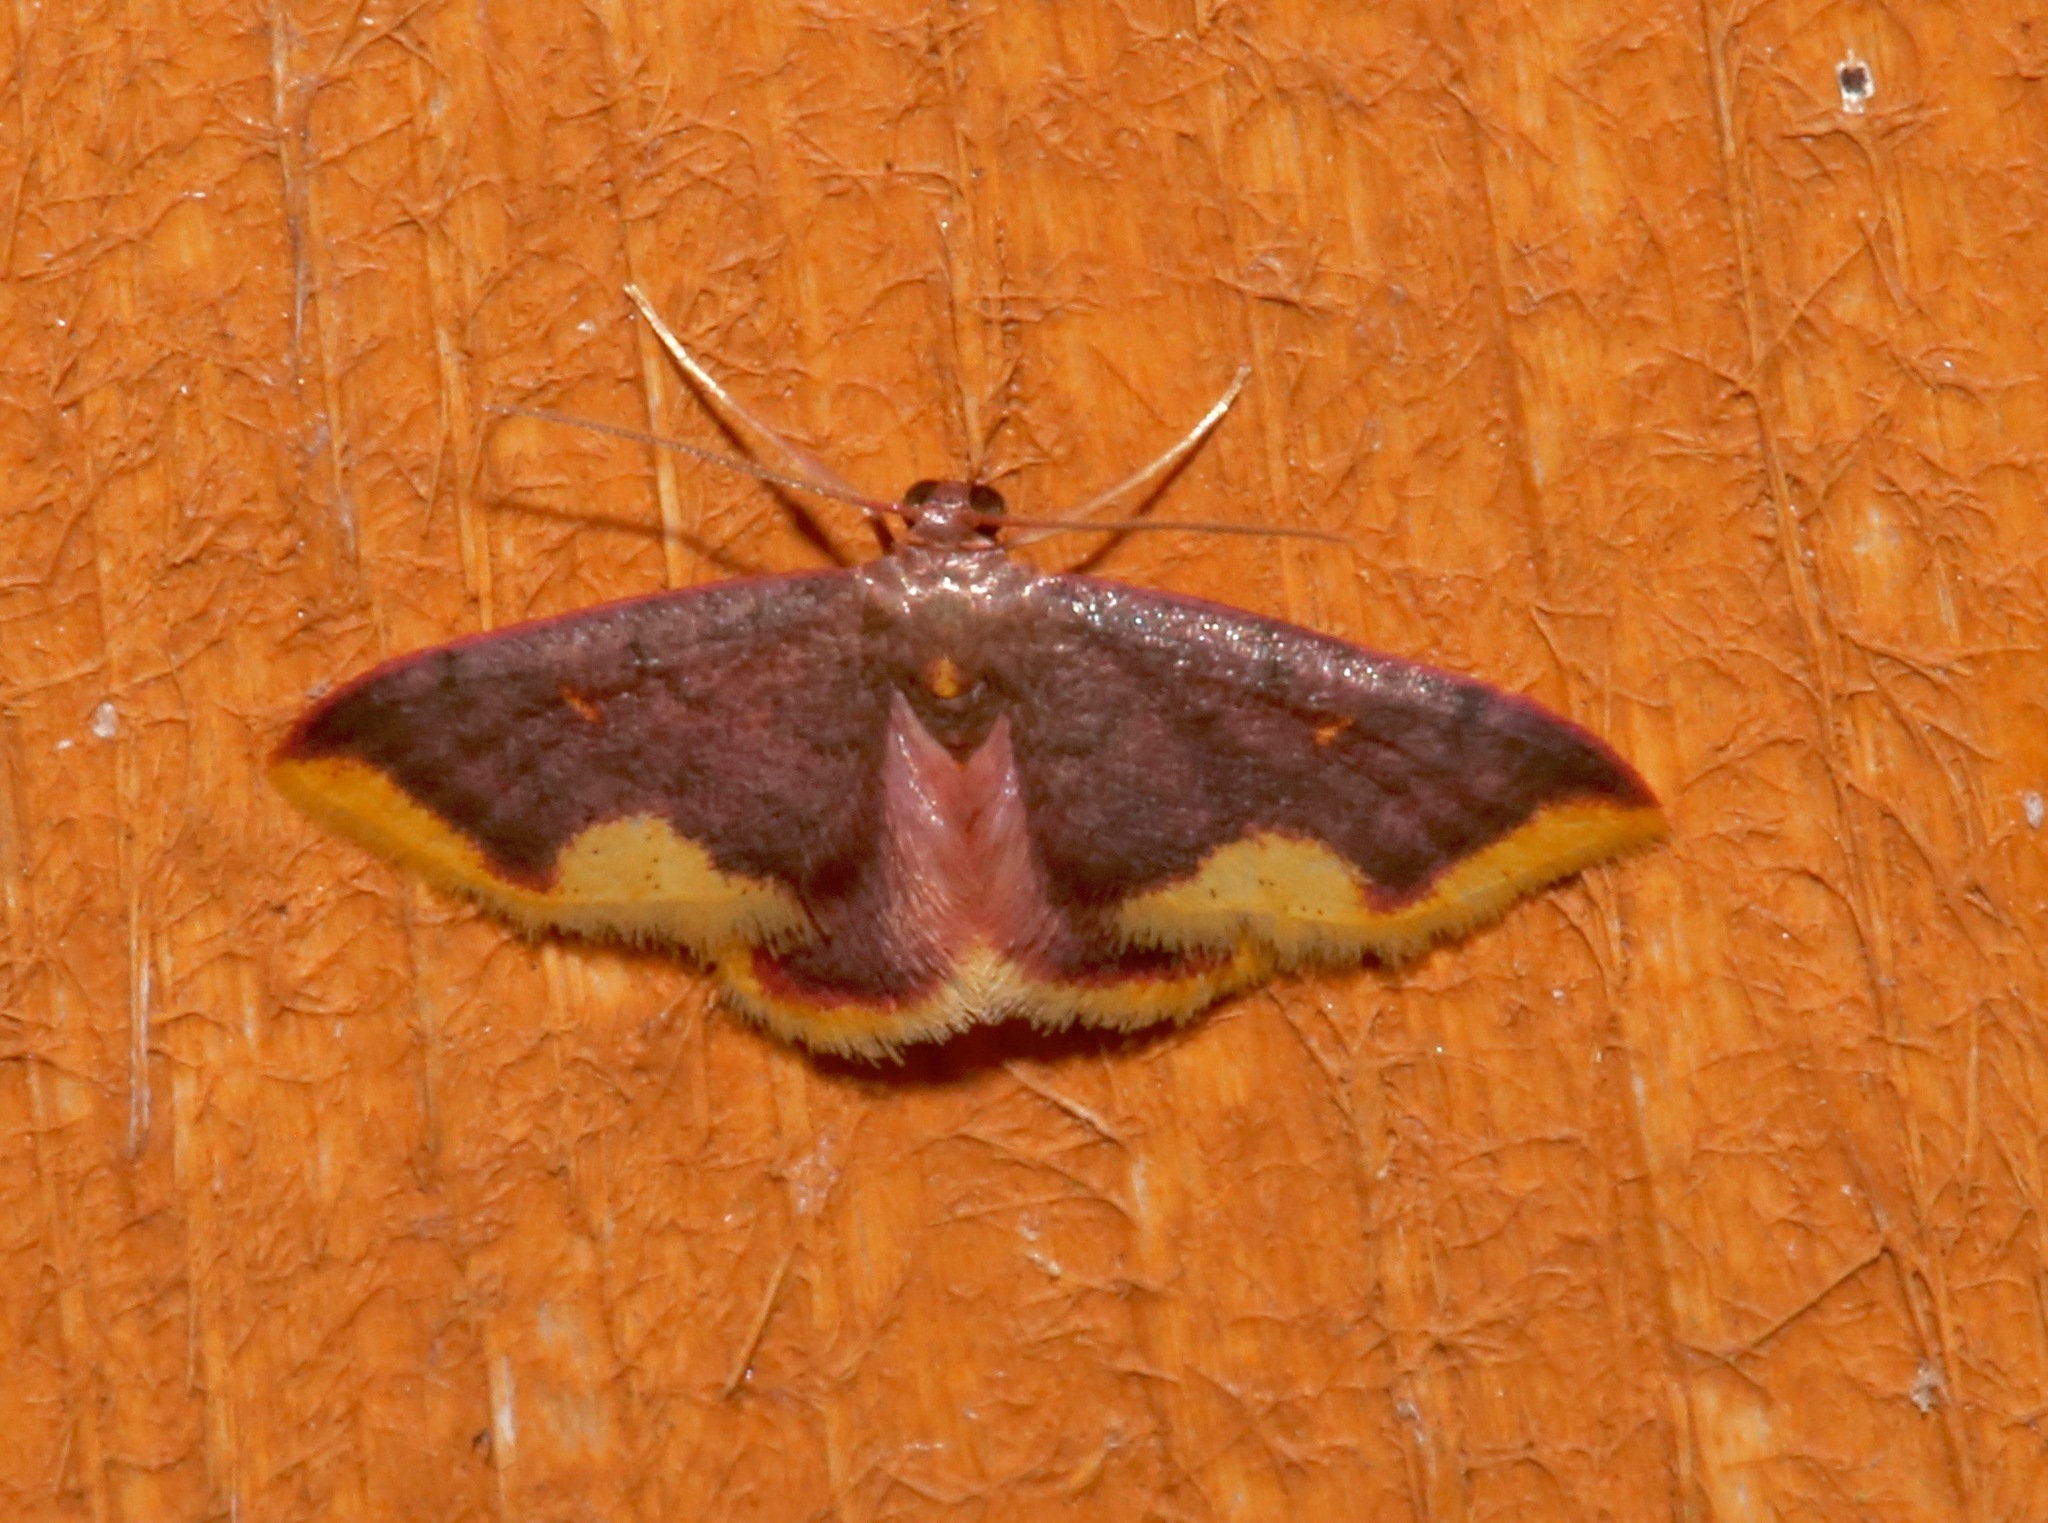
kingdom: Animalia
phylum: Arthropoda
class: Insecta
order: Lepidoptera
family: Geometridae
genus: Lophosis
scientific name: Lophosis labeculata
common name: Stained lophosis moth
